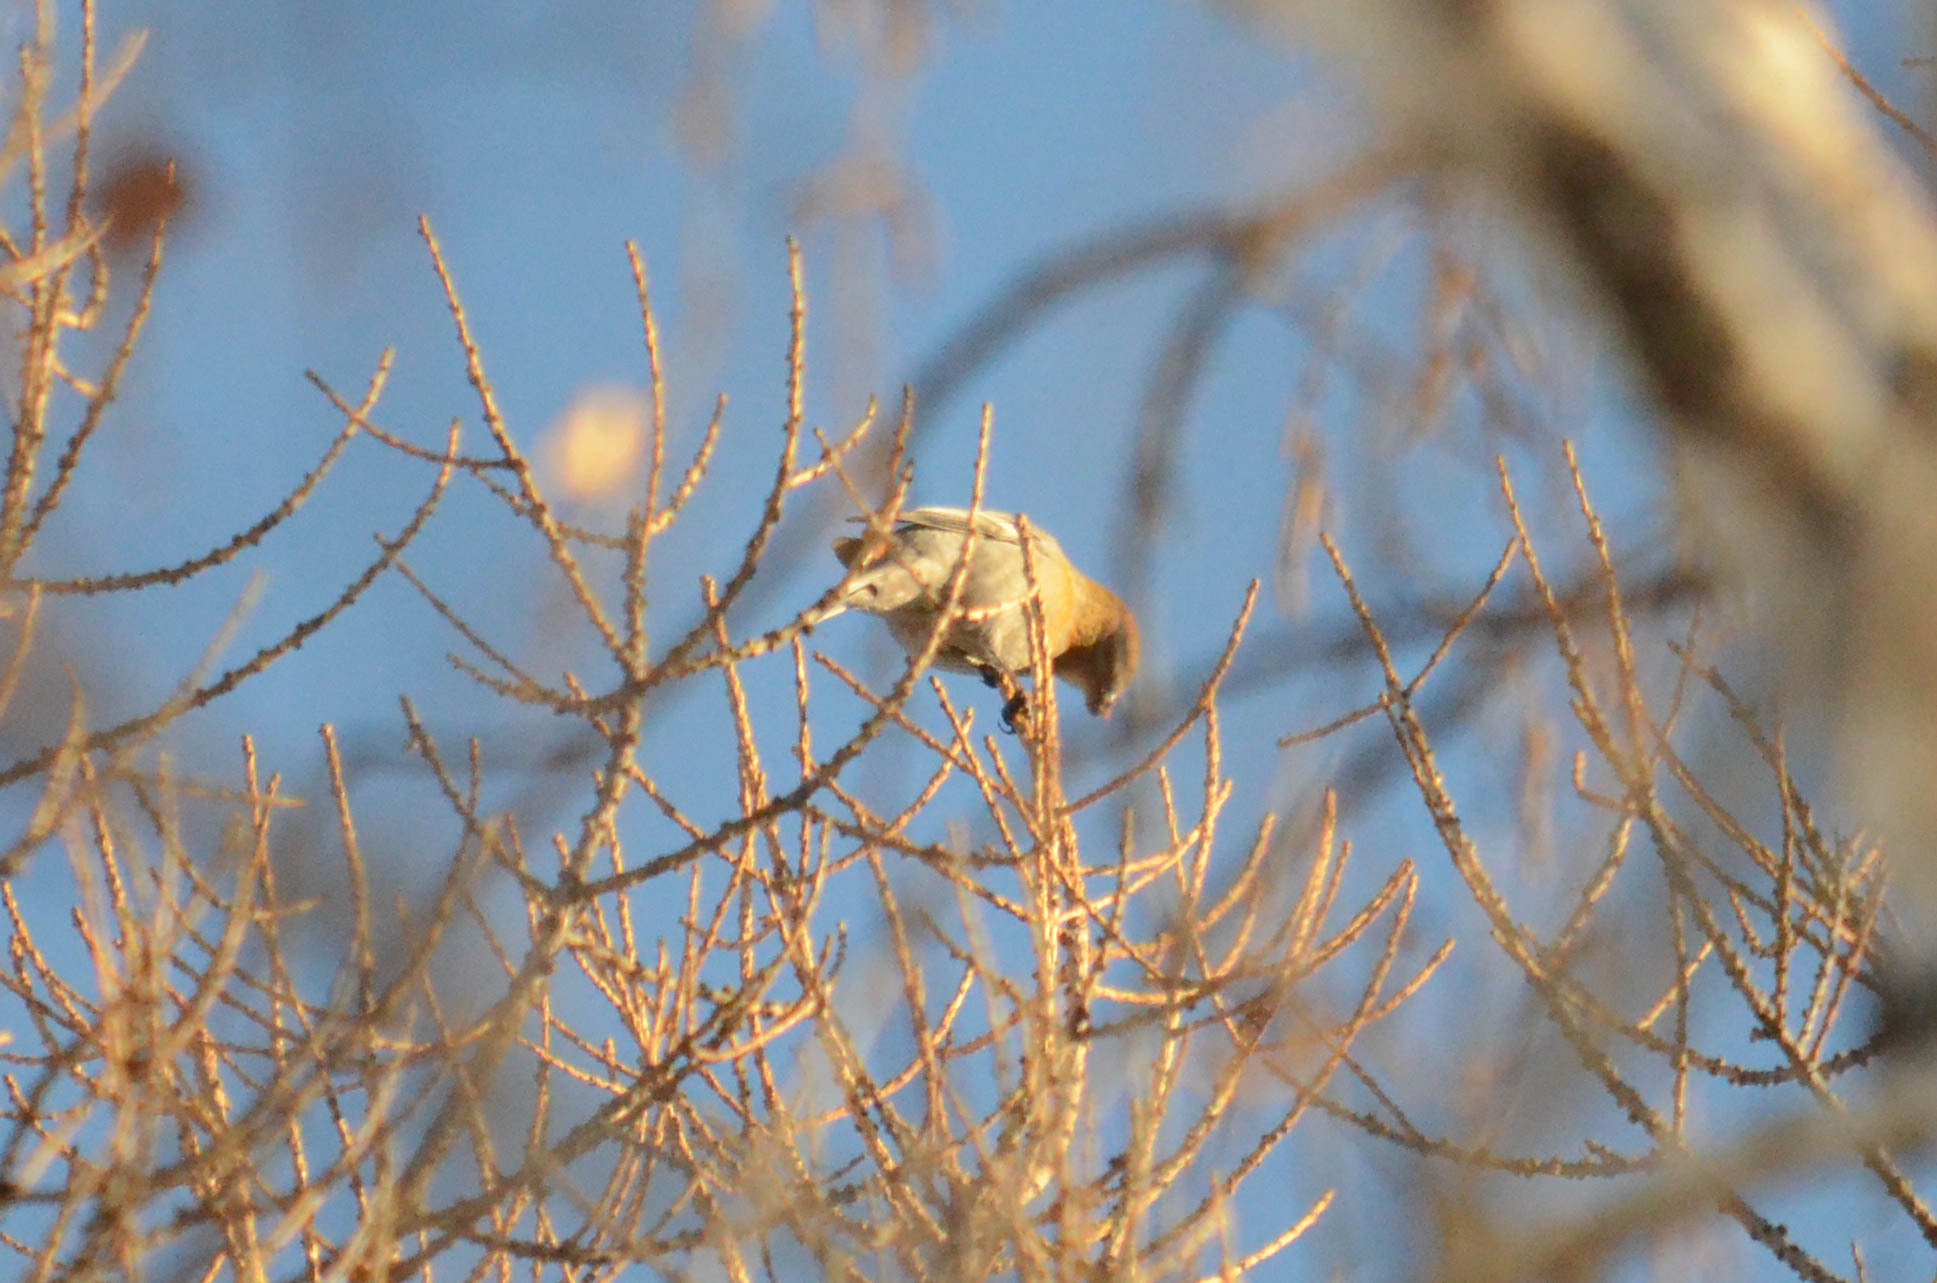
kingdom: Animalia
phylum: Chordata
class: Aves
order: Passeriformes
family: Fringillidae
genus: Pinicola
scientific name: Pinicola enucleator
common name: Pine grosbeak
